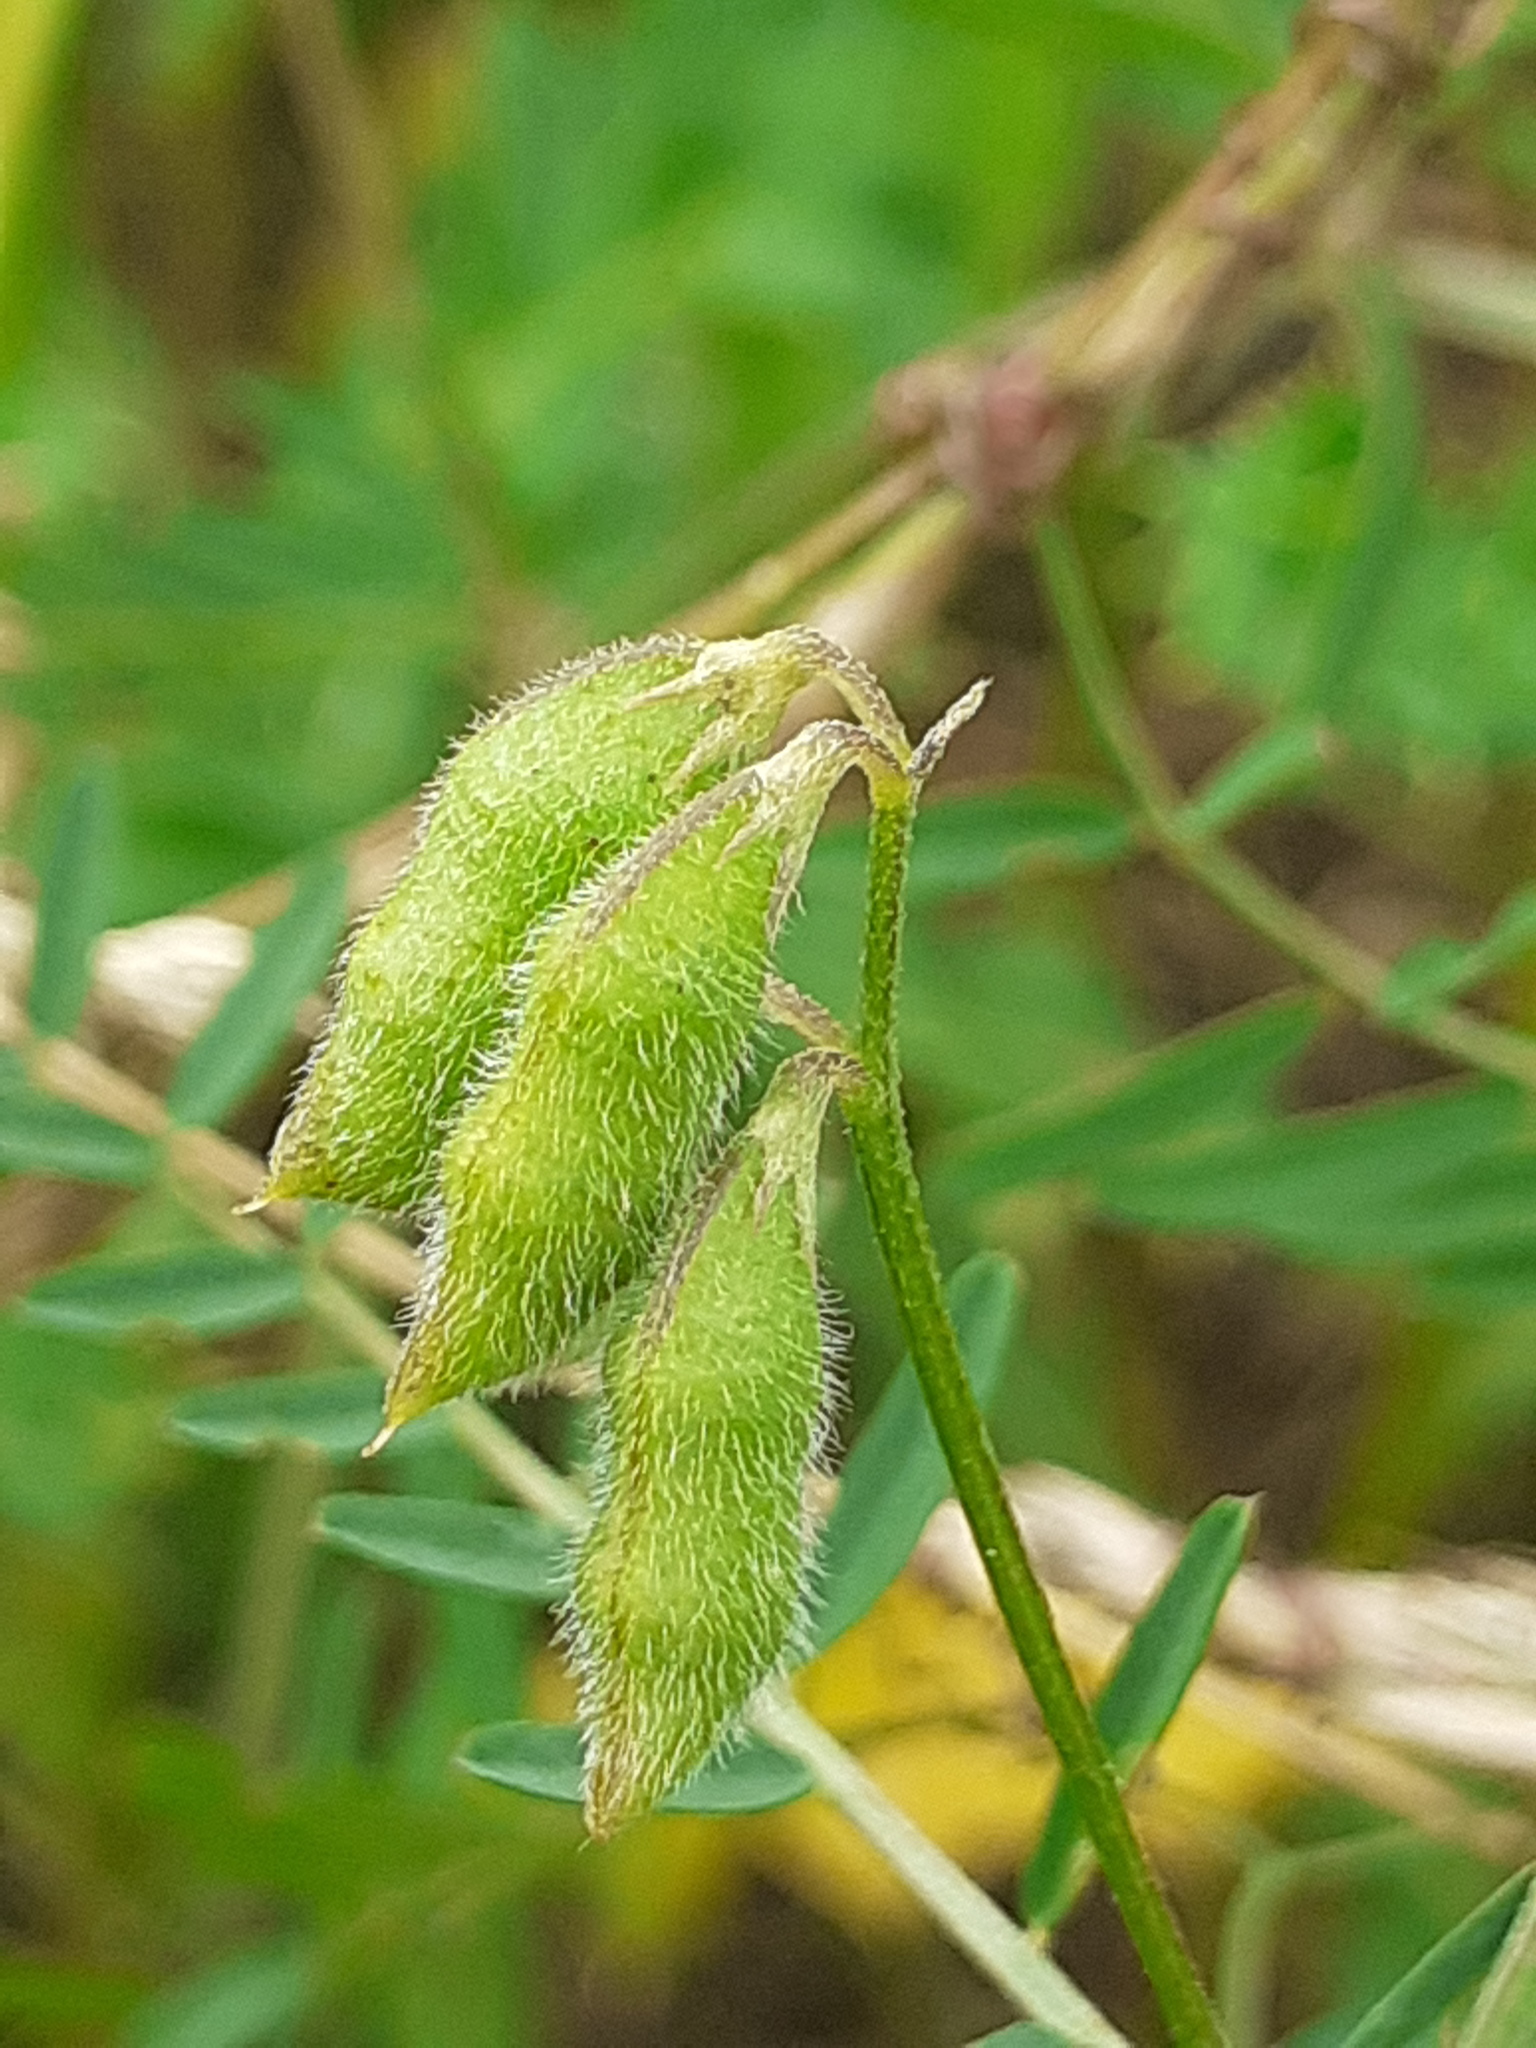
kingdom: Plantae
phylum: Tracheophyta
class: Magnoliopsida
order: Fabales
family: Fabaceae
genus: Vicia
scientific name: Vicia hirsuta
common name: Tiny vetch
